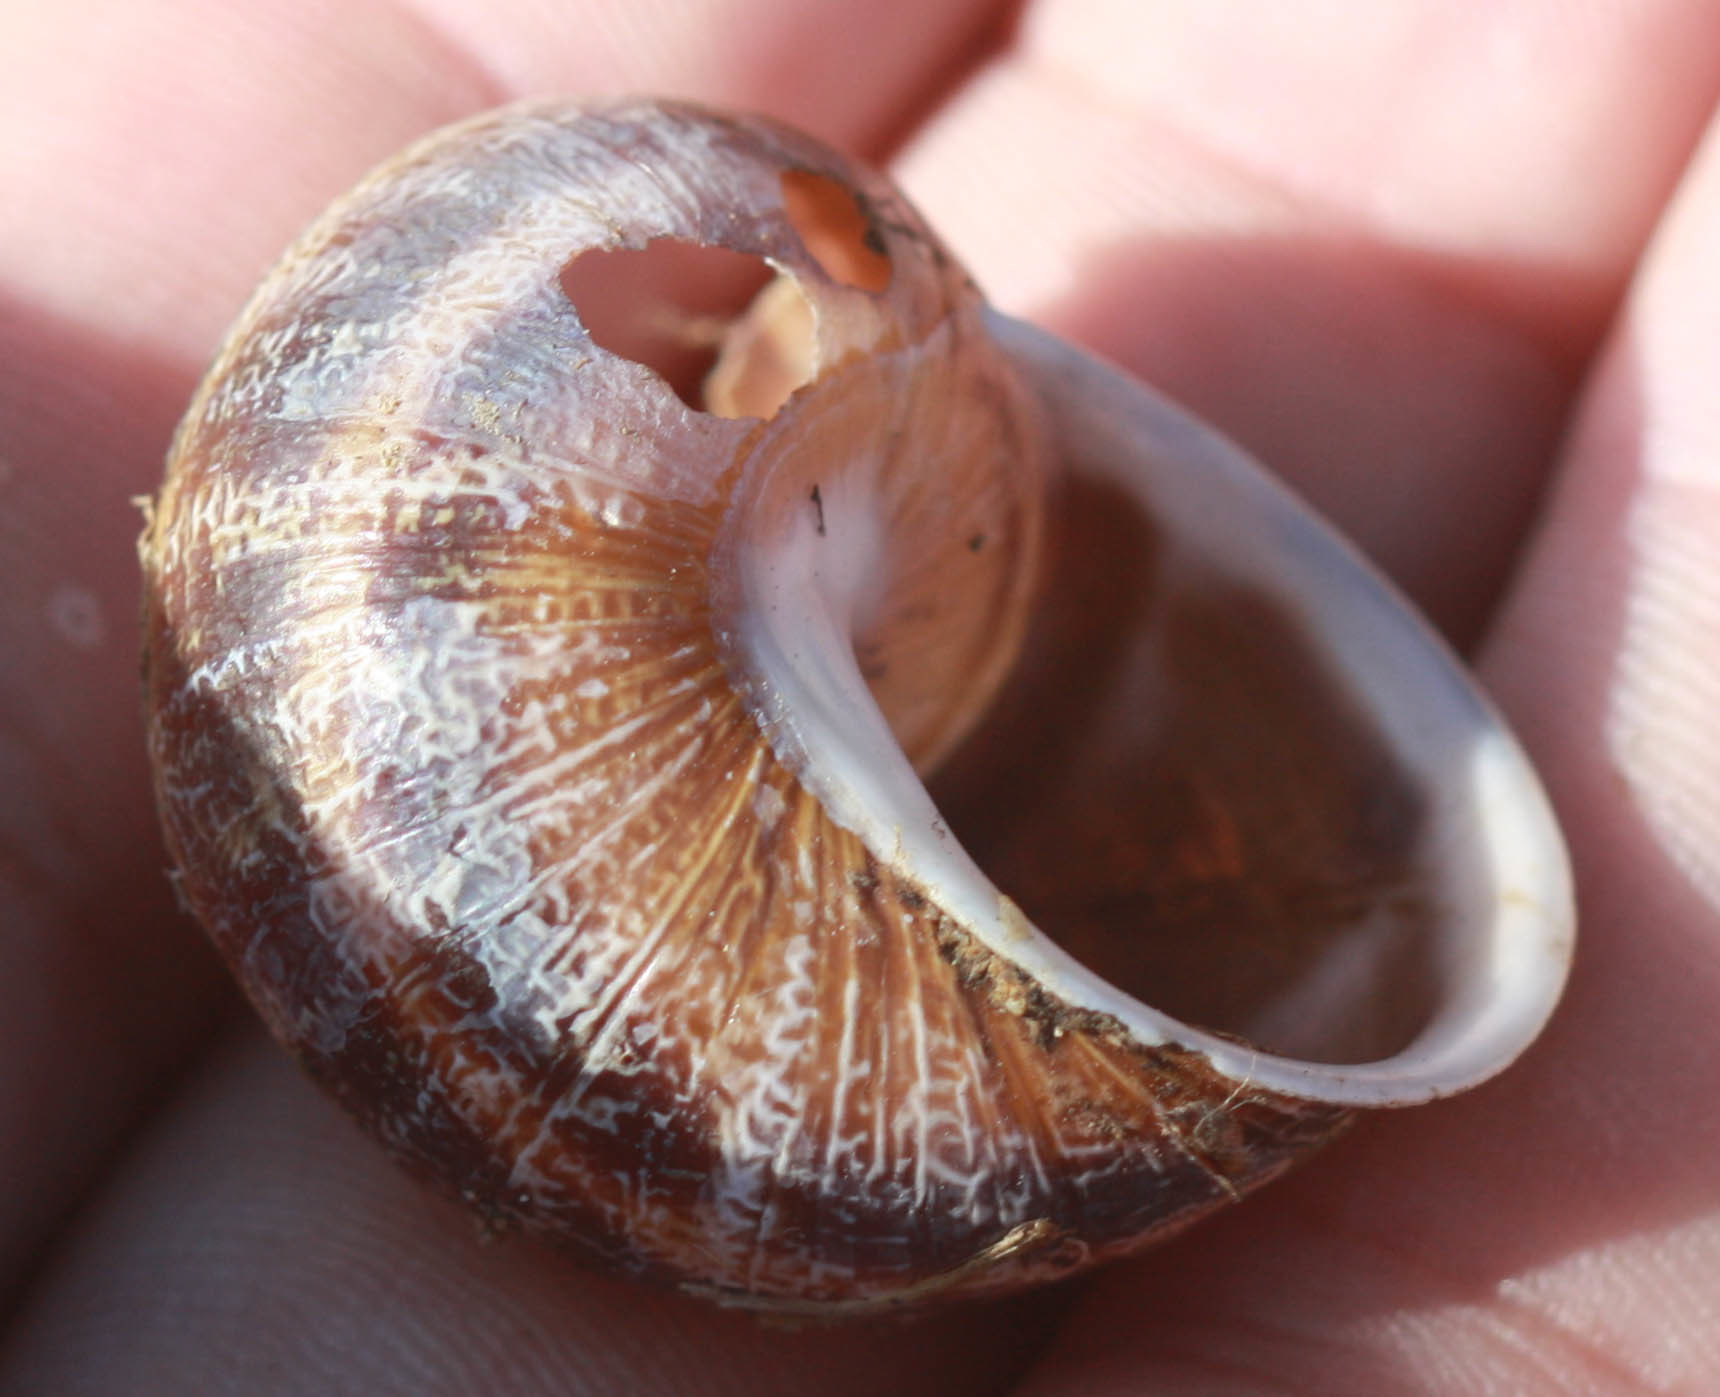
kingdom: Animalia
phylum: Mollusca
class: Gastropoda
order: Stylommatophora
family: Helicidae
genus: Cornu
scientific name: Cornu aspersum
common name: Brown garden snail
